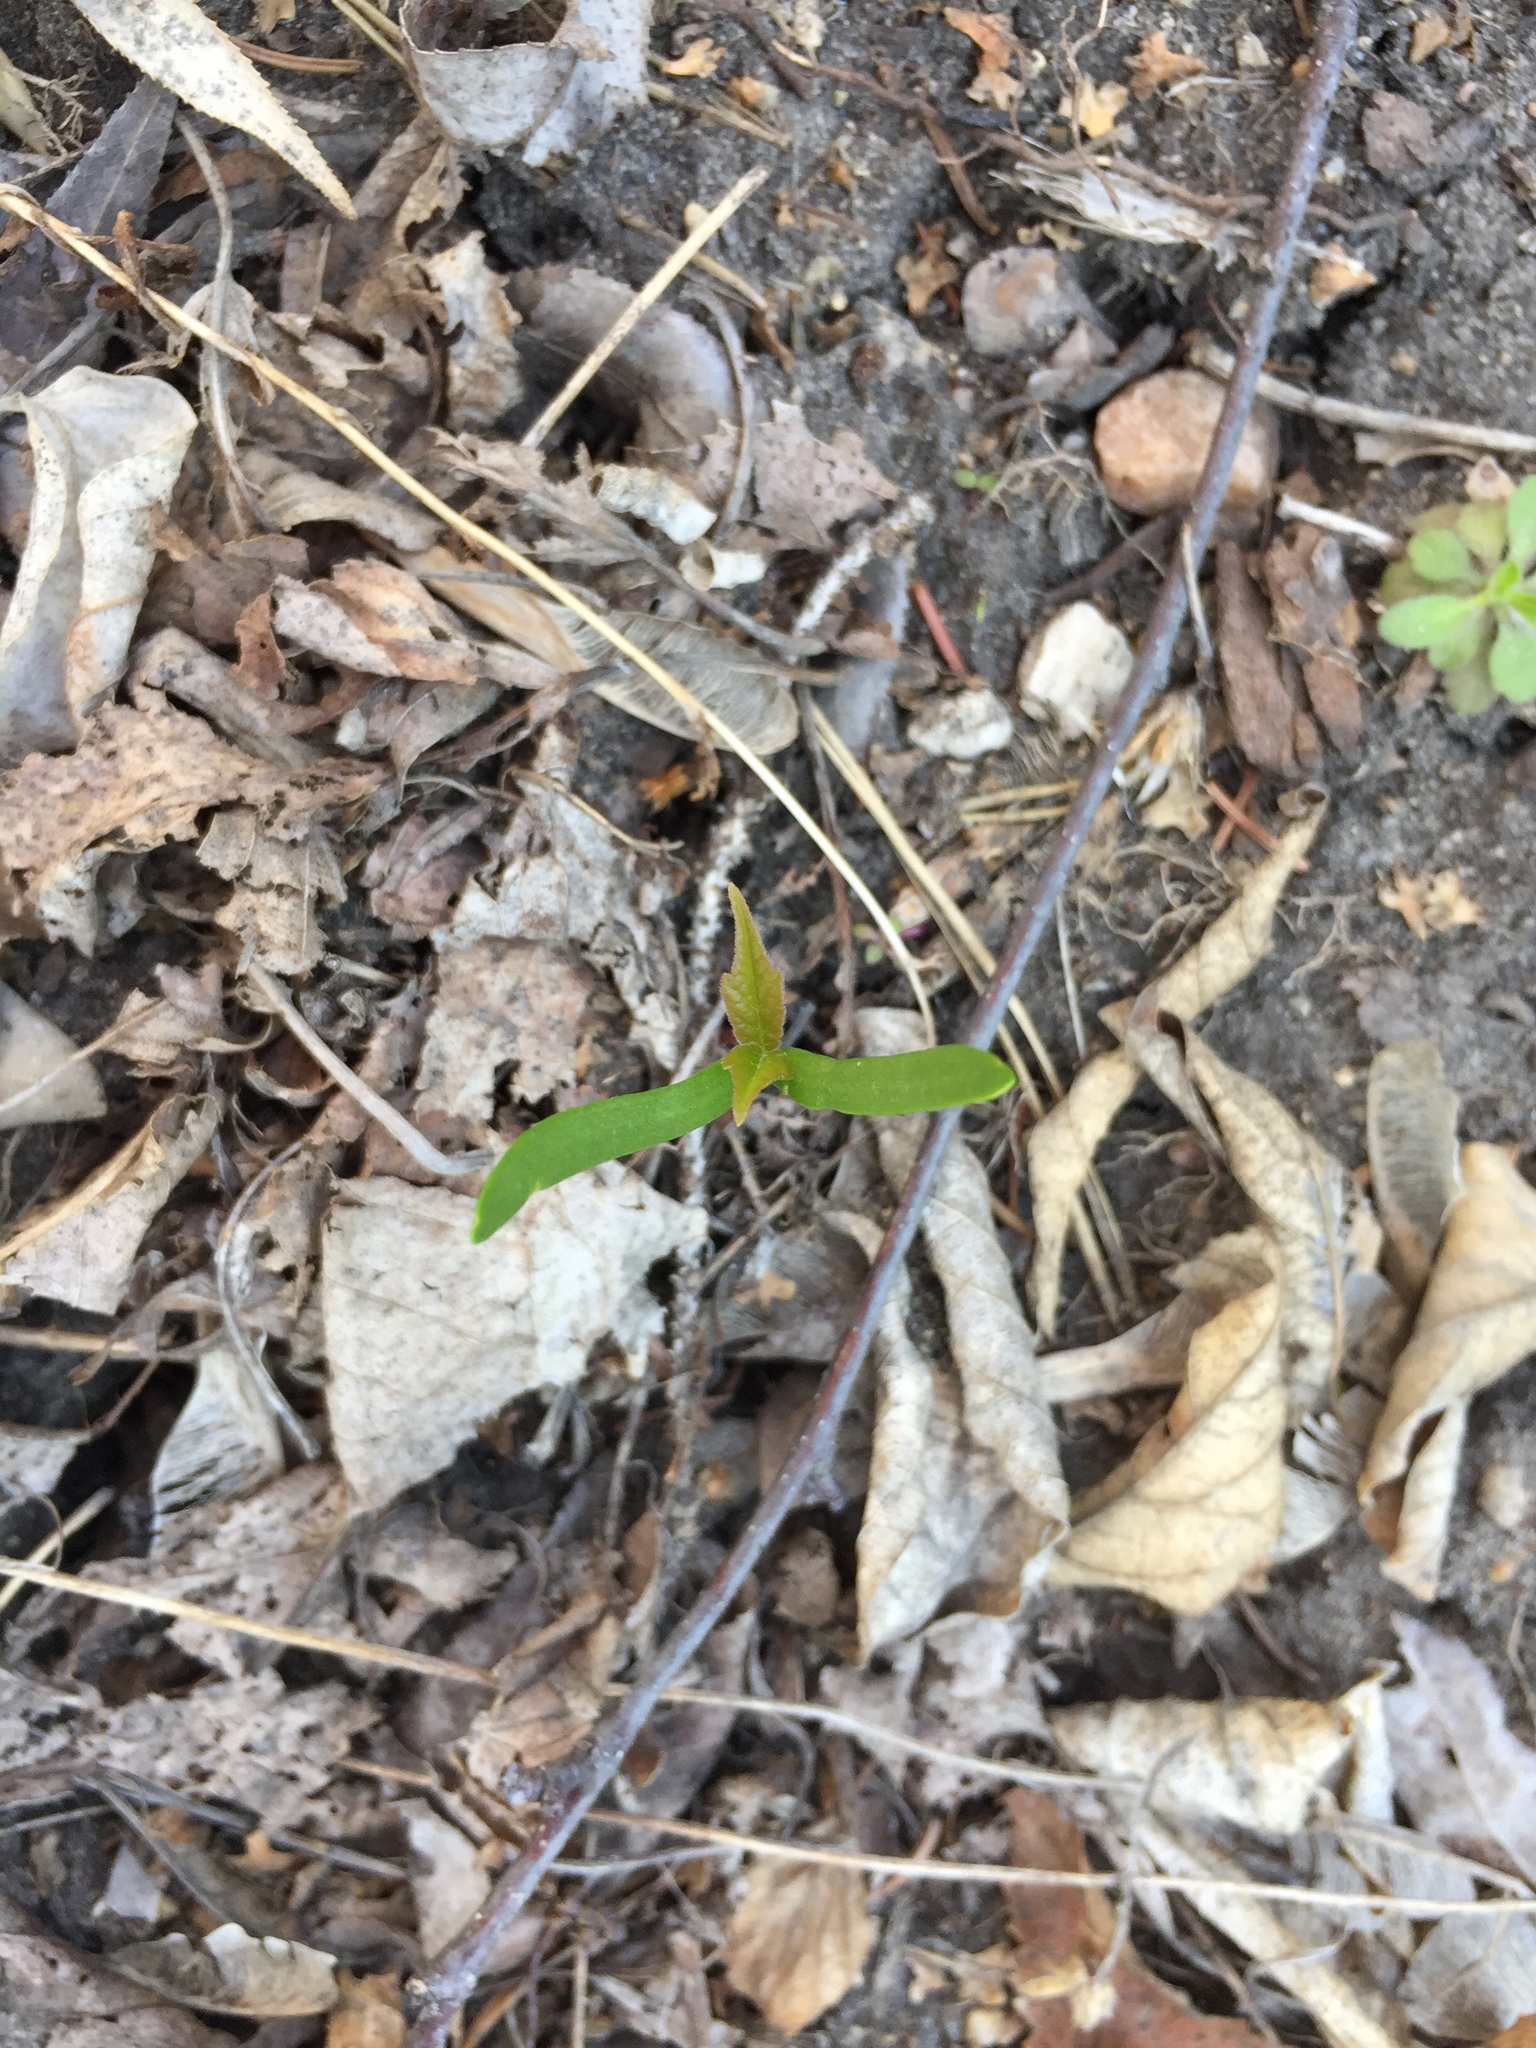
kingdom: Plantae
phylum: Tracheophyta
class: Magnoliopsida
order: Sapindales
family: Sapindaceae
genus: Acer
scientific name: Acer negundo
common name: Ashleaf maple
